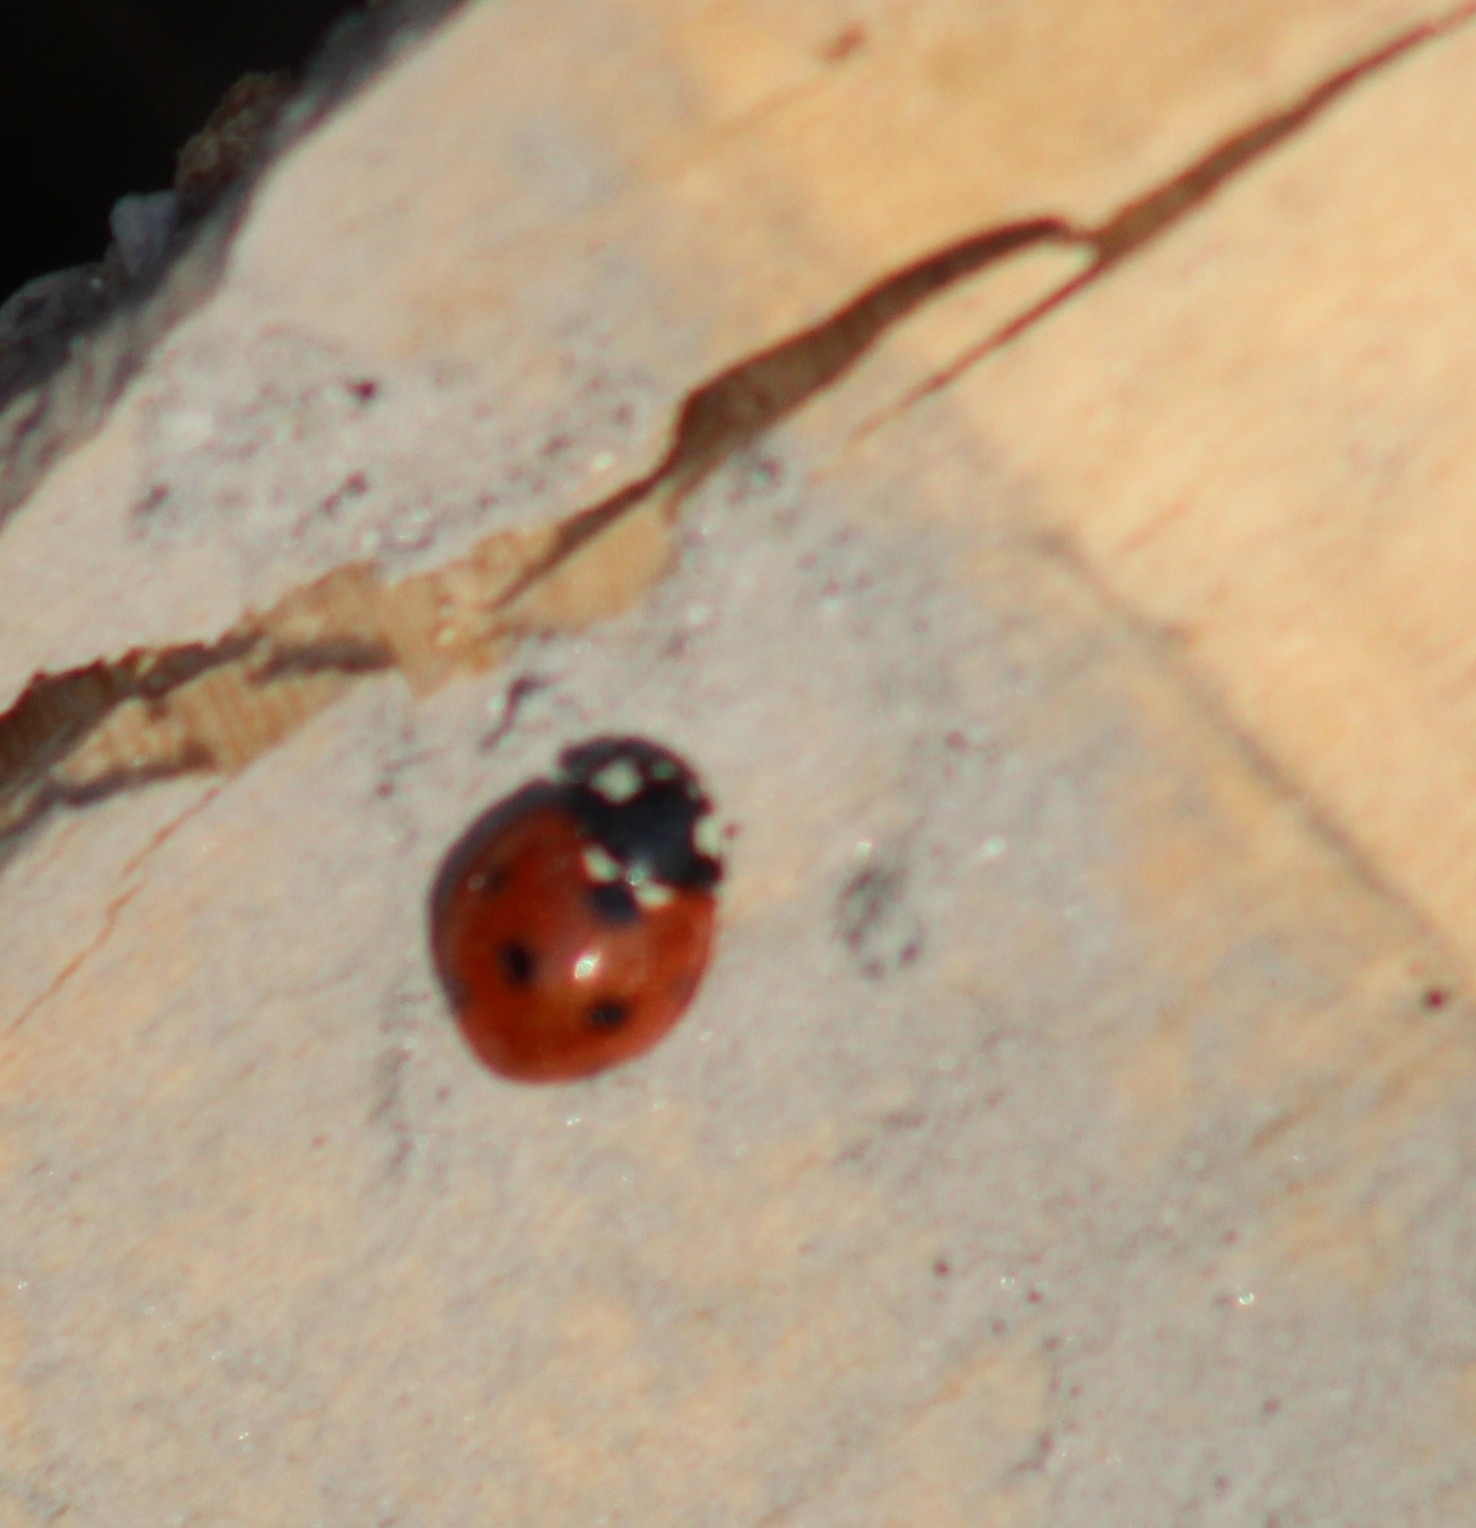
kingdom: Animalia
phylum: Arthropoda
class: Insecta
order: Coleoptera
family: Coccinellidae
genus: Coccinella
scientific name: Coccinella septempunctata
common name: Sevenspotted lady beetle
